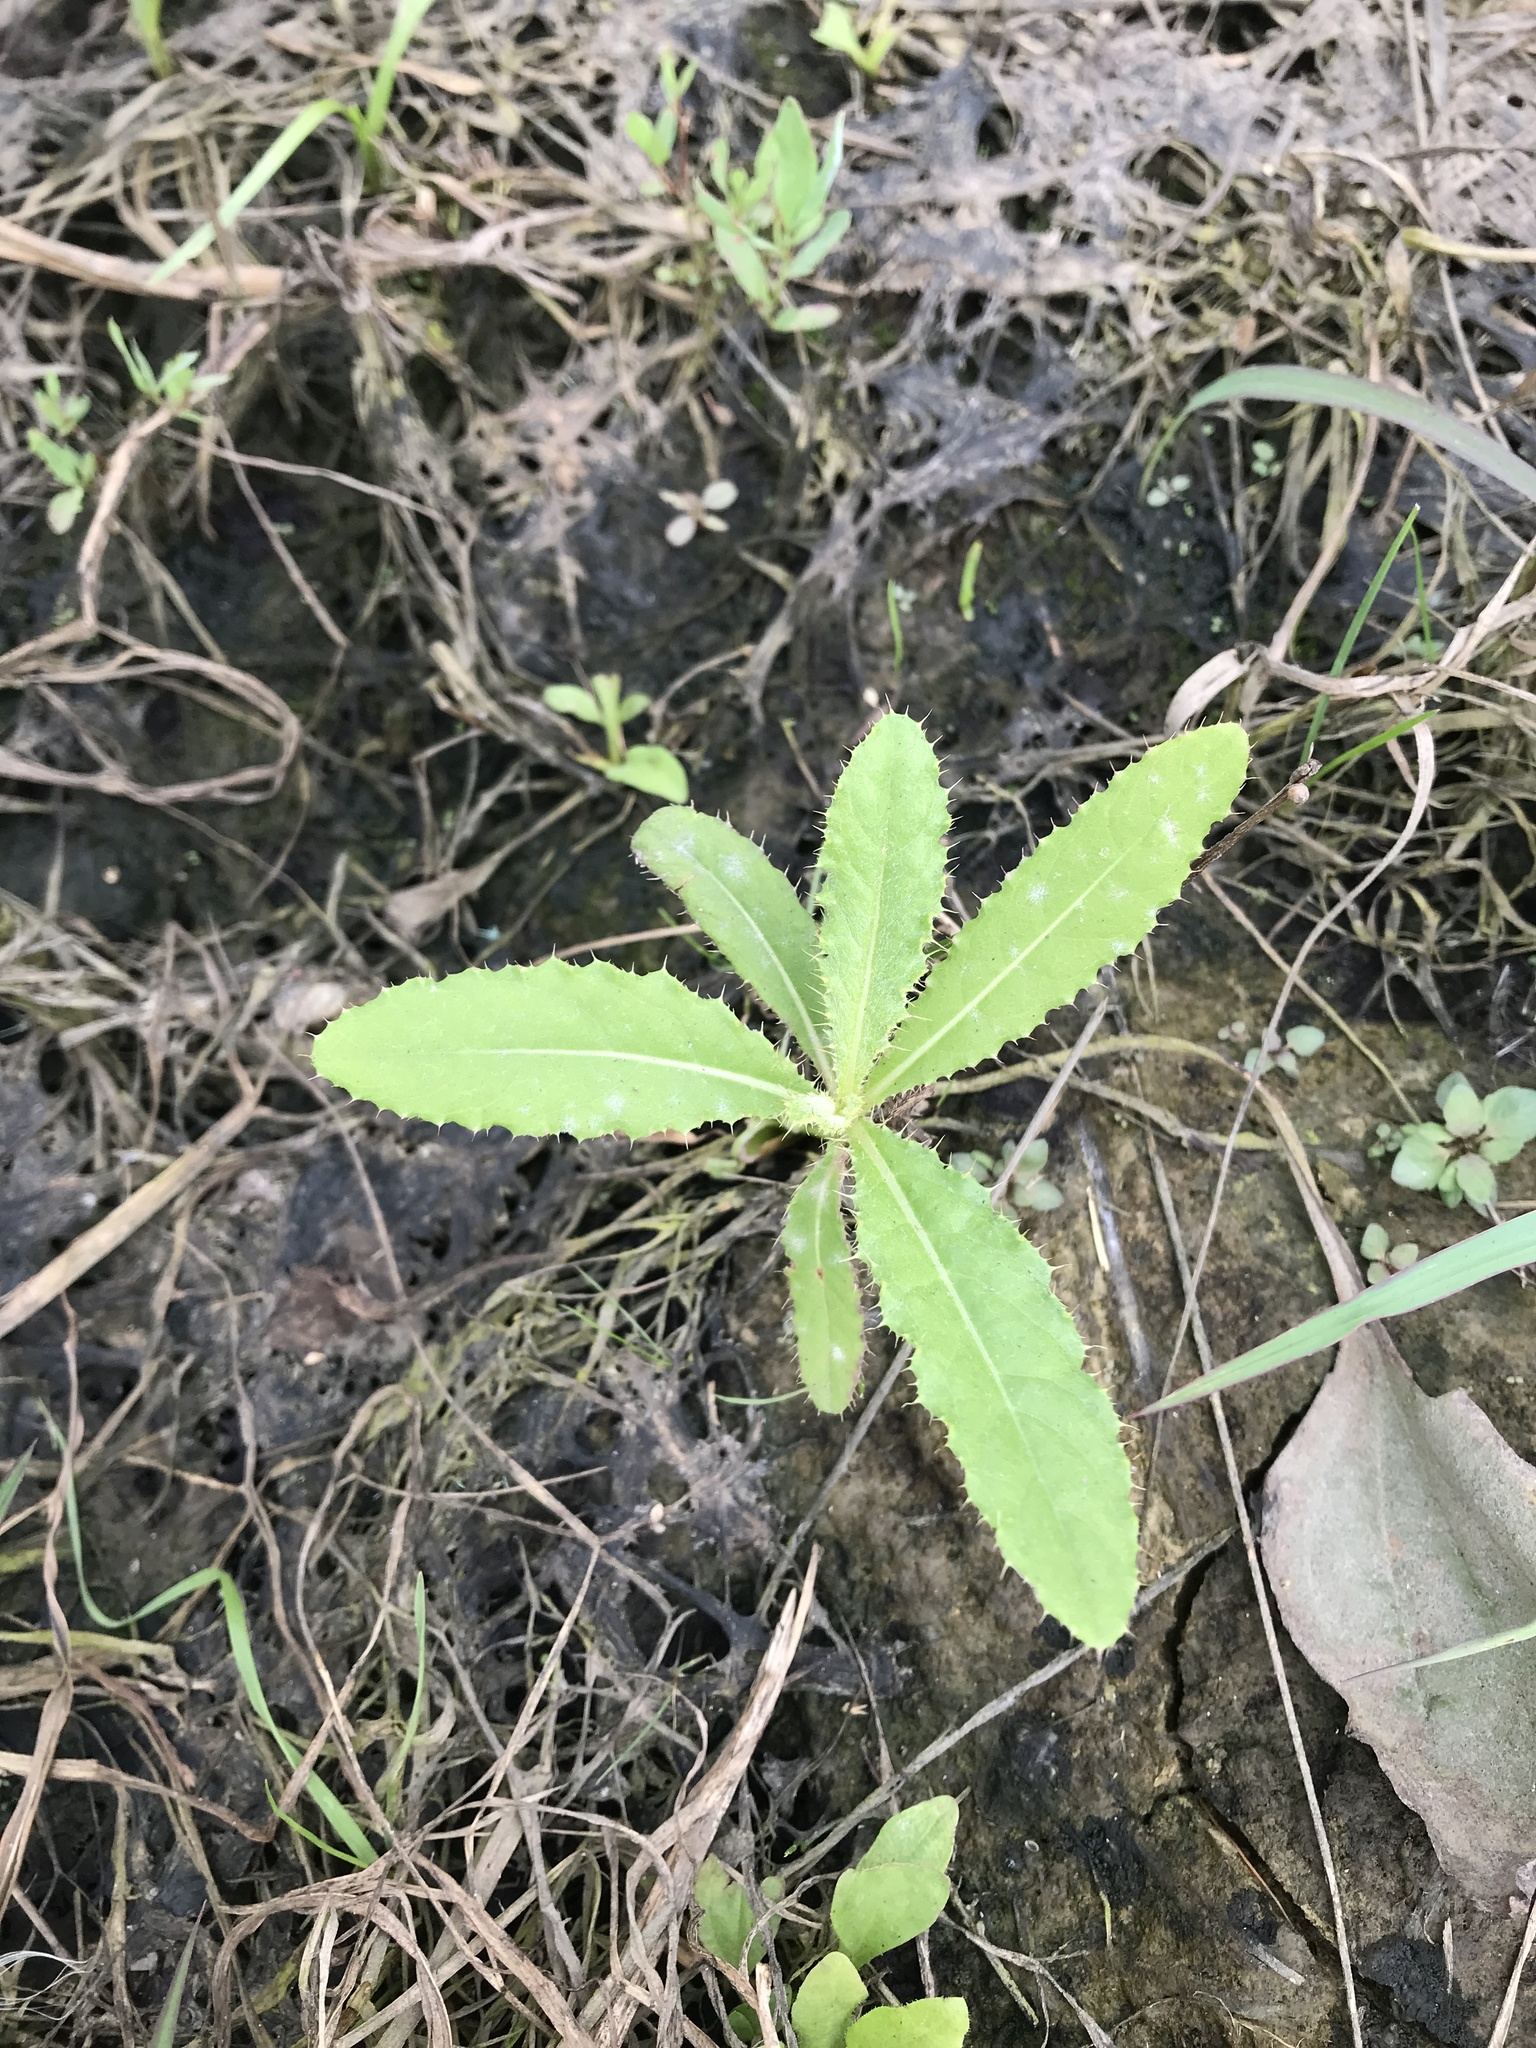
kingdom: Plantae
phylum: Tracheophyta
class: Magnoliopsida
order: Asterales
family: Asteraceae
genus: Cirsium
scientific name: Cirsium arvense
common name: Creeping thistle
